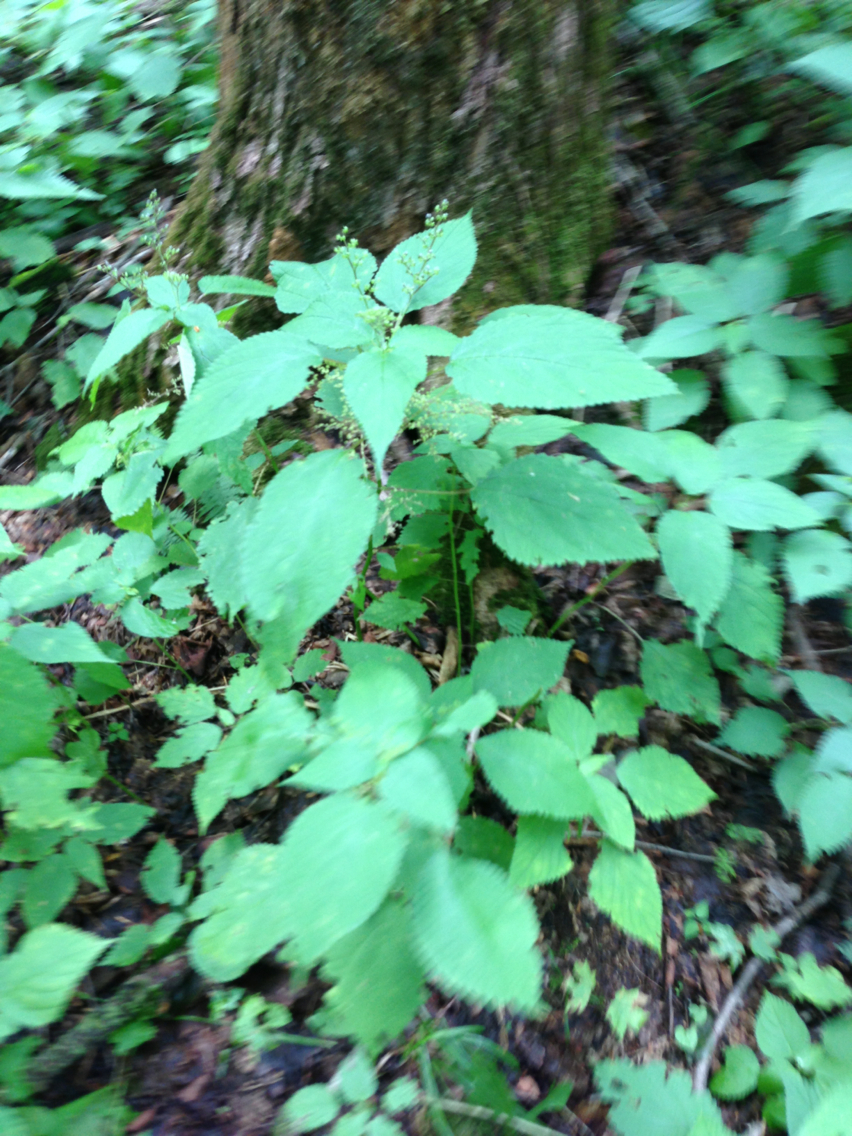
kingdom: Plantae
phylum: Tracheophyta
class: Magnoliopsida
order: Rosales
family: Urticaceae
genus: Laportea
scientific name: Laportea canadensis
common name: Canada nettle
